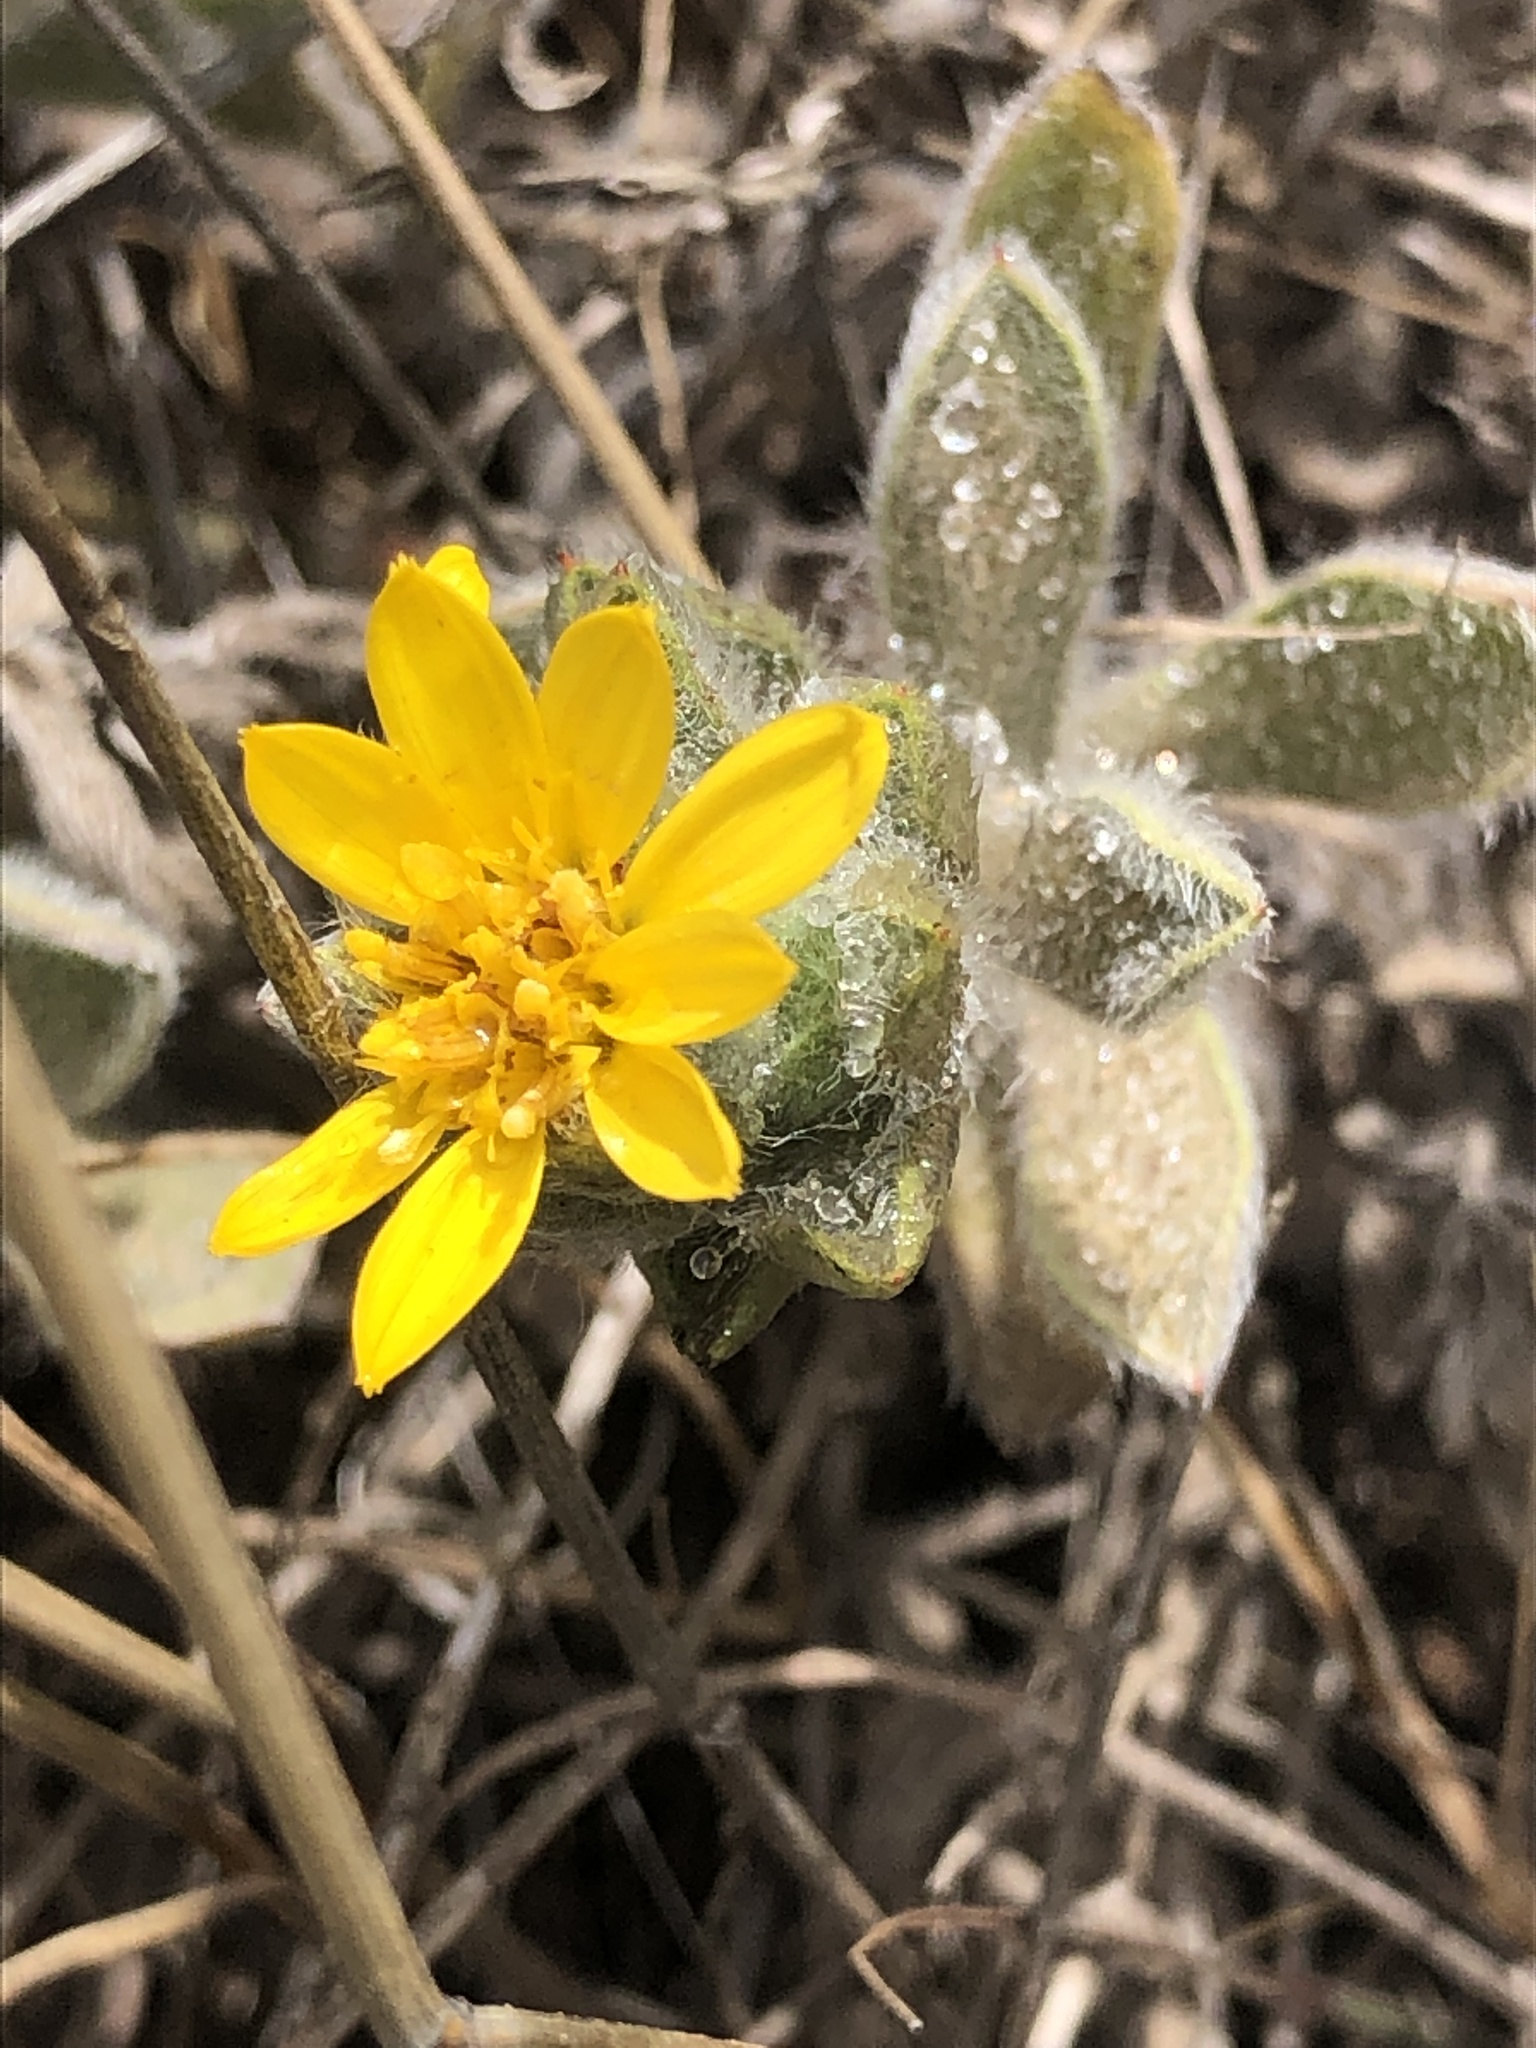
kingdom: Plantae
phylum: Tracheophyta
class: Magnoliopsida
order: Asterales
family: Asteraceae
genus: Heterotheca
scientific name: Heterotheca sessiliflora
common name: Sessile-flower golden-aster
